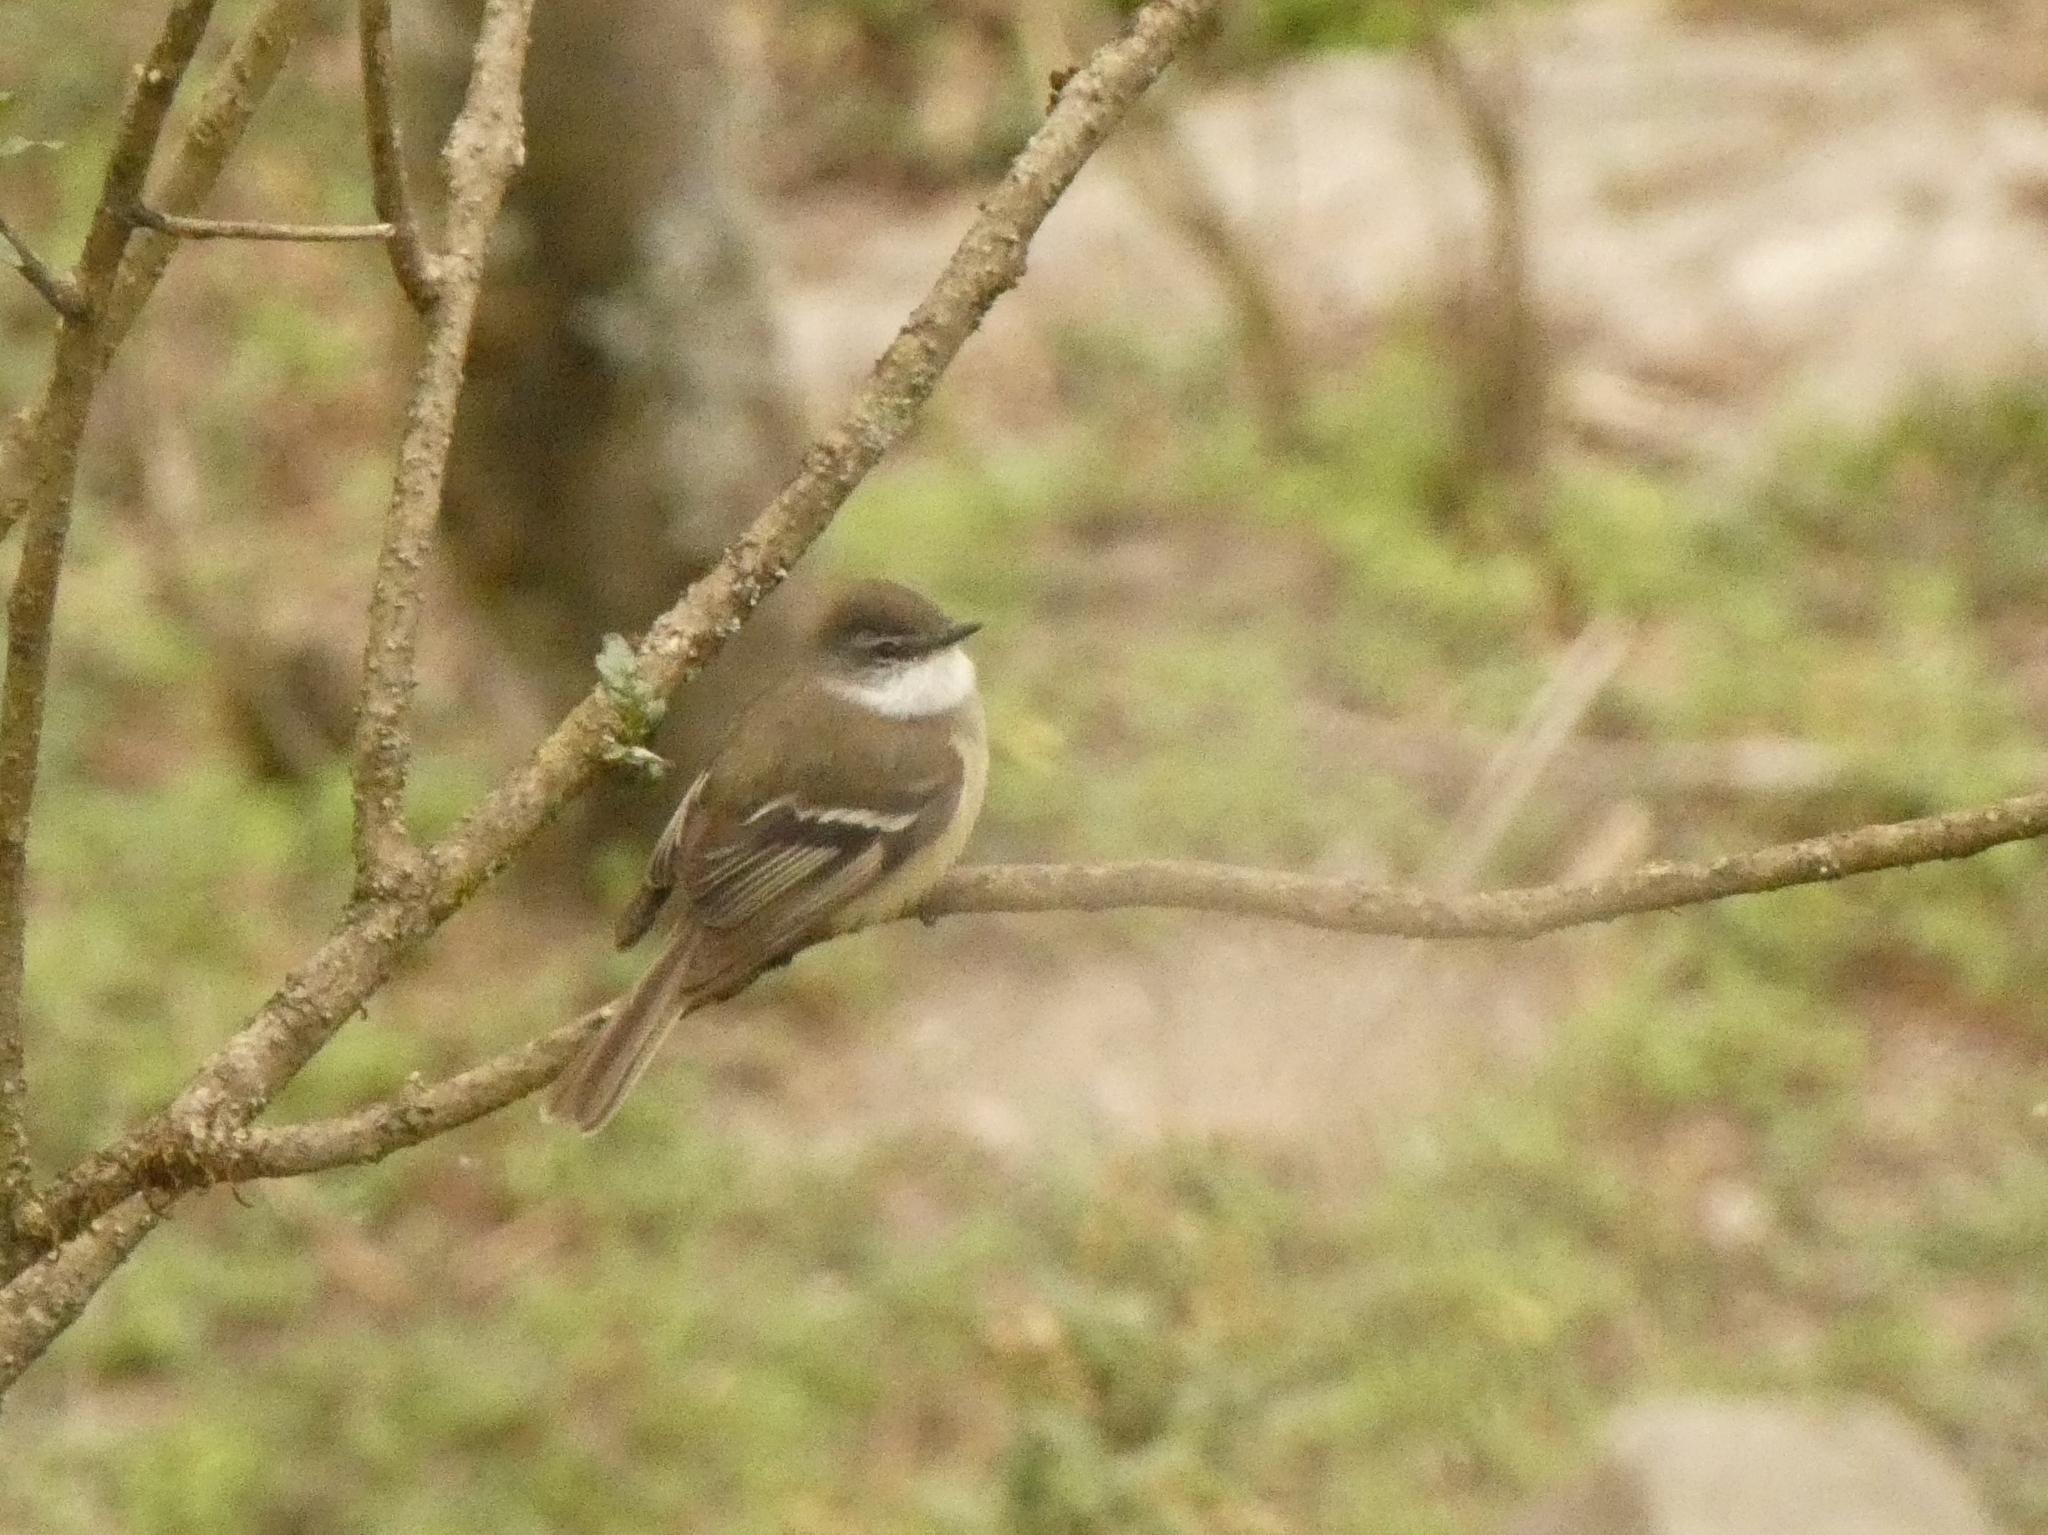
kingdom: Animalia
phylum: Chordata
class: Aves
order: Passeriformes
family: Tyrannidae
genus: Mecocerculus
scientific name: Mecocerculus leucophrys
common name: White-throated tyrannulet
